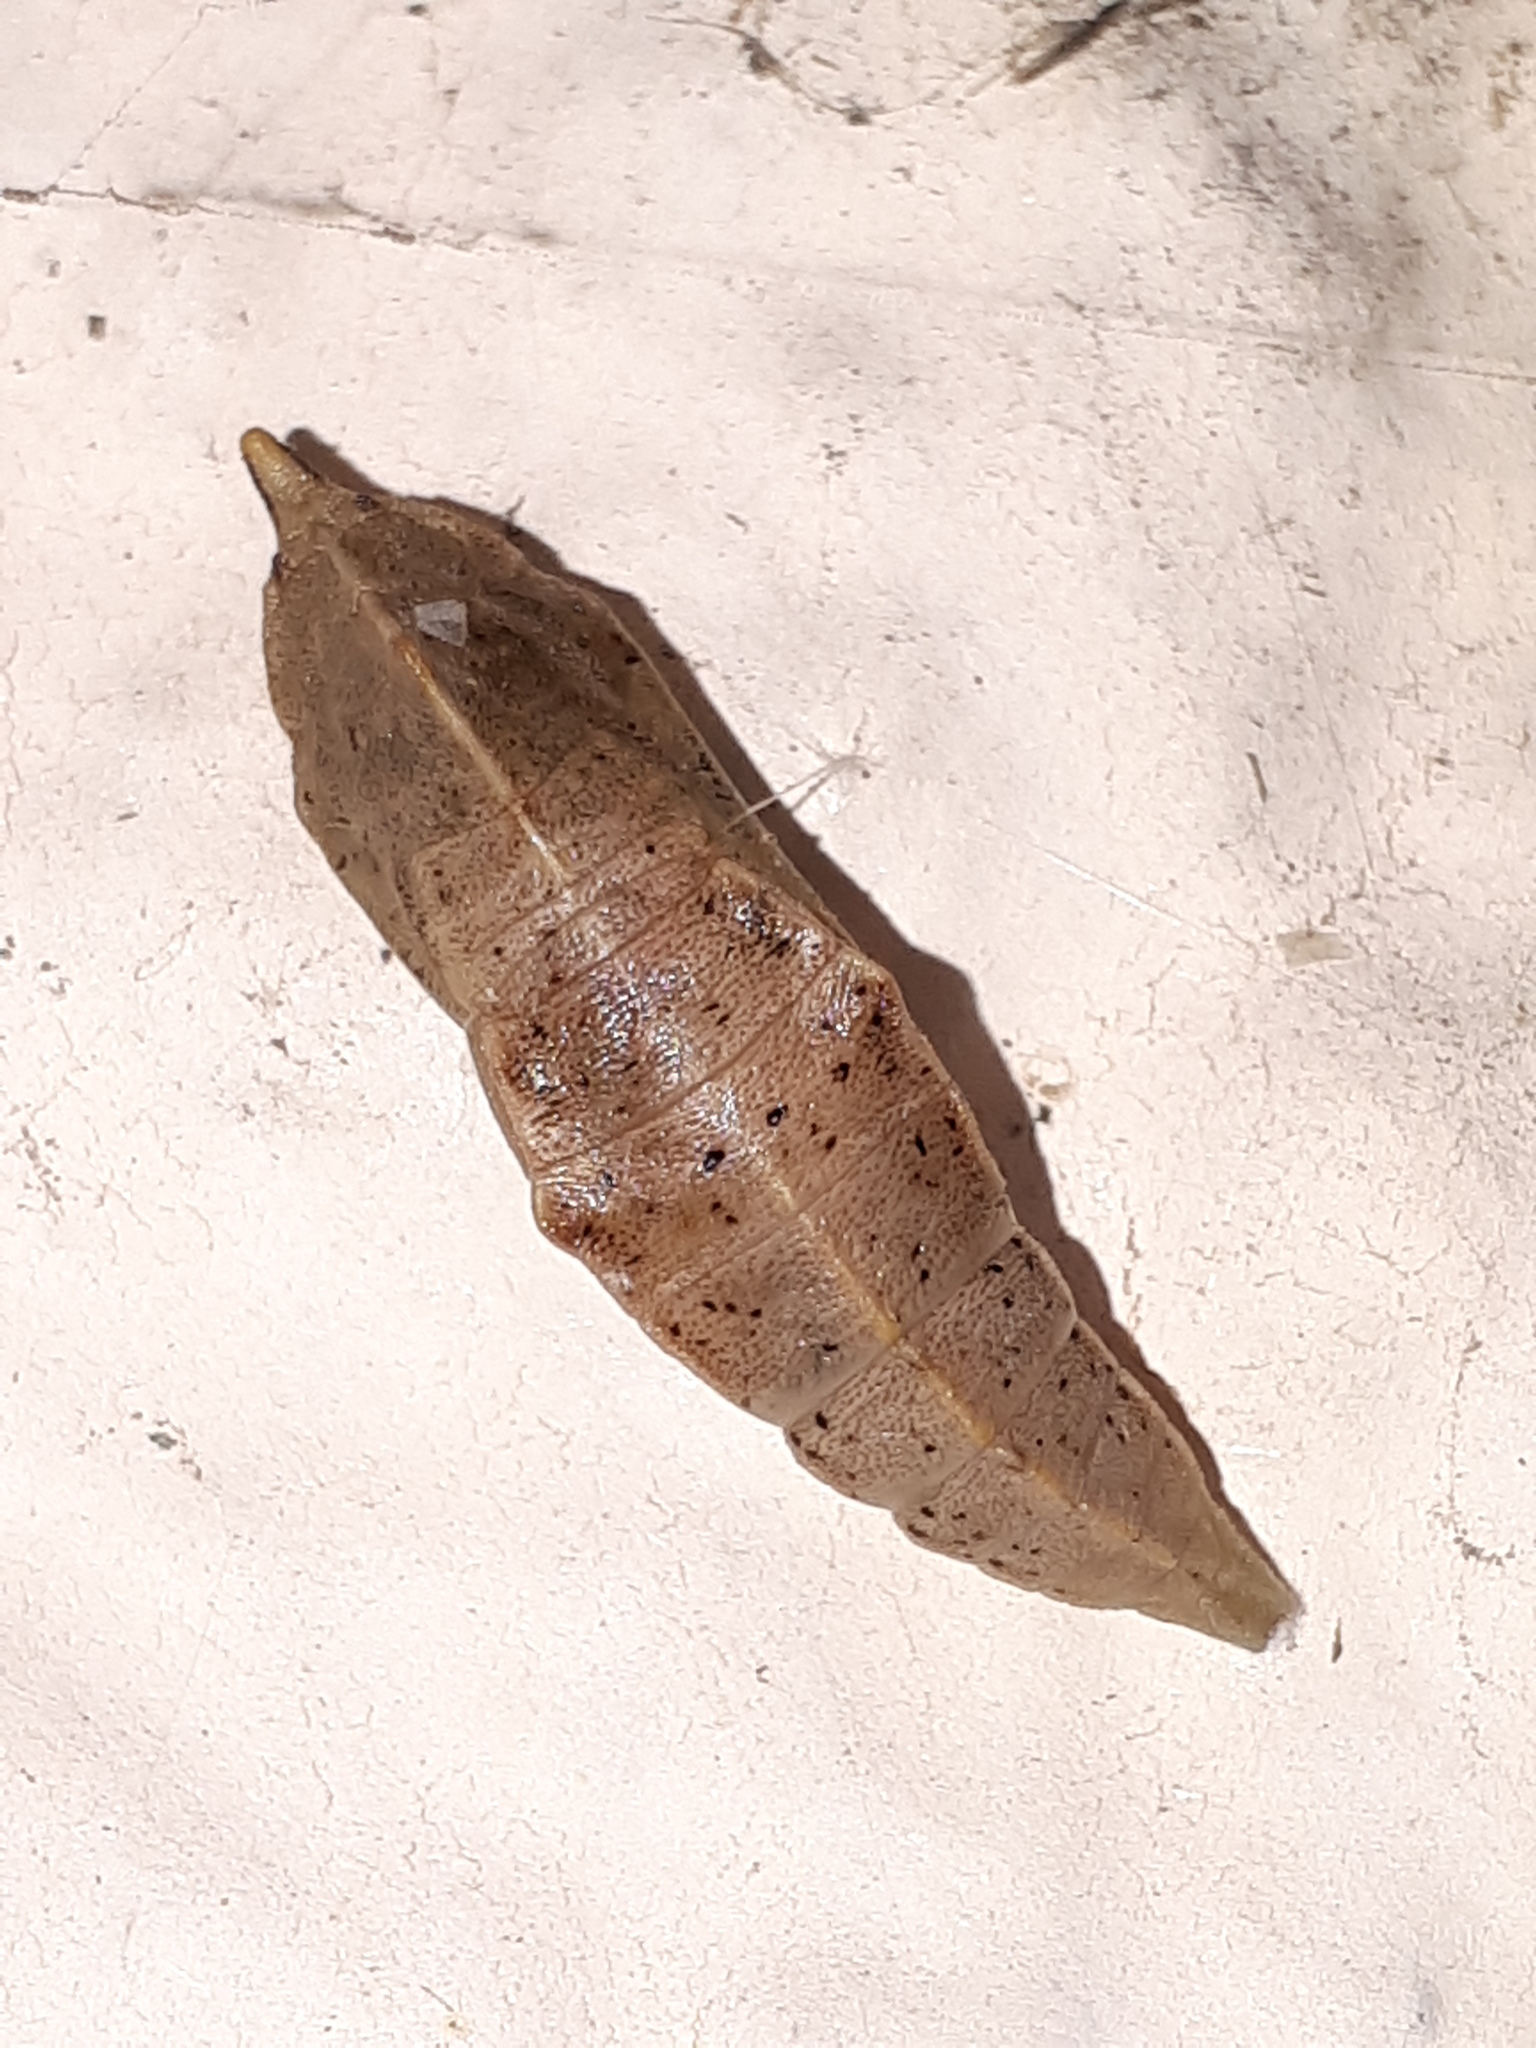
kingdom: Animalia
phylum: Arthropoda
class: Insecta
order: Lepidoptera
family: Pieridae
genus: Pieris
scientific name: Pieris rapae
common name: Small white
